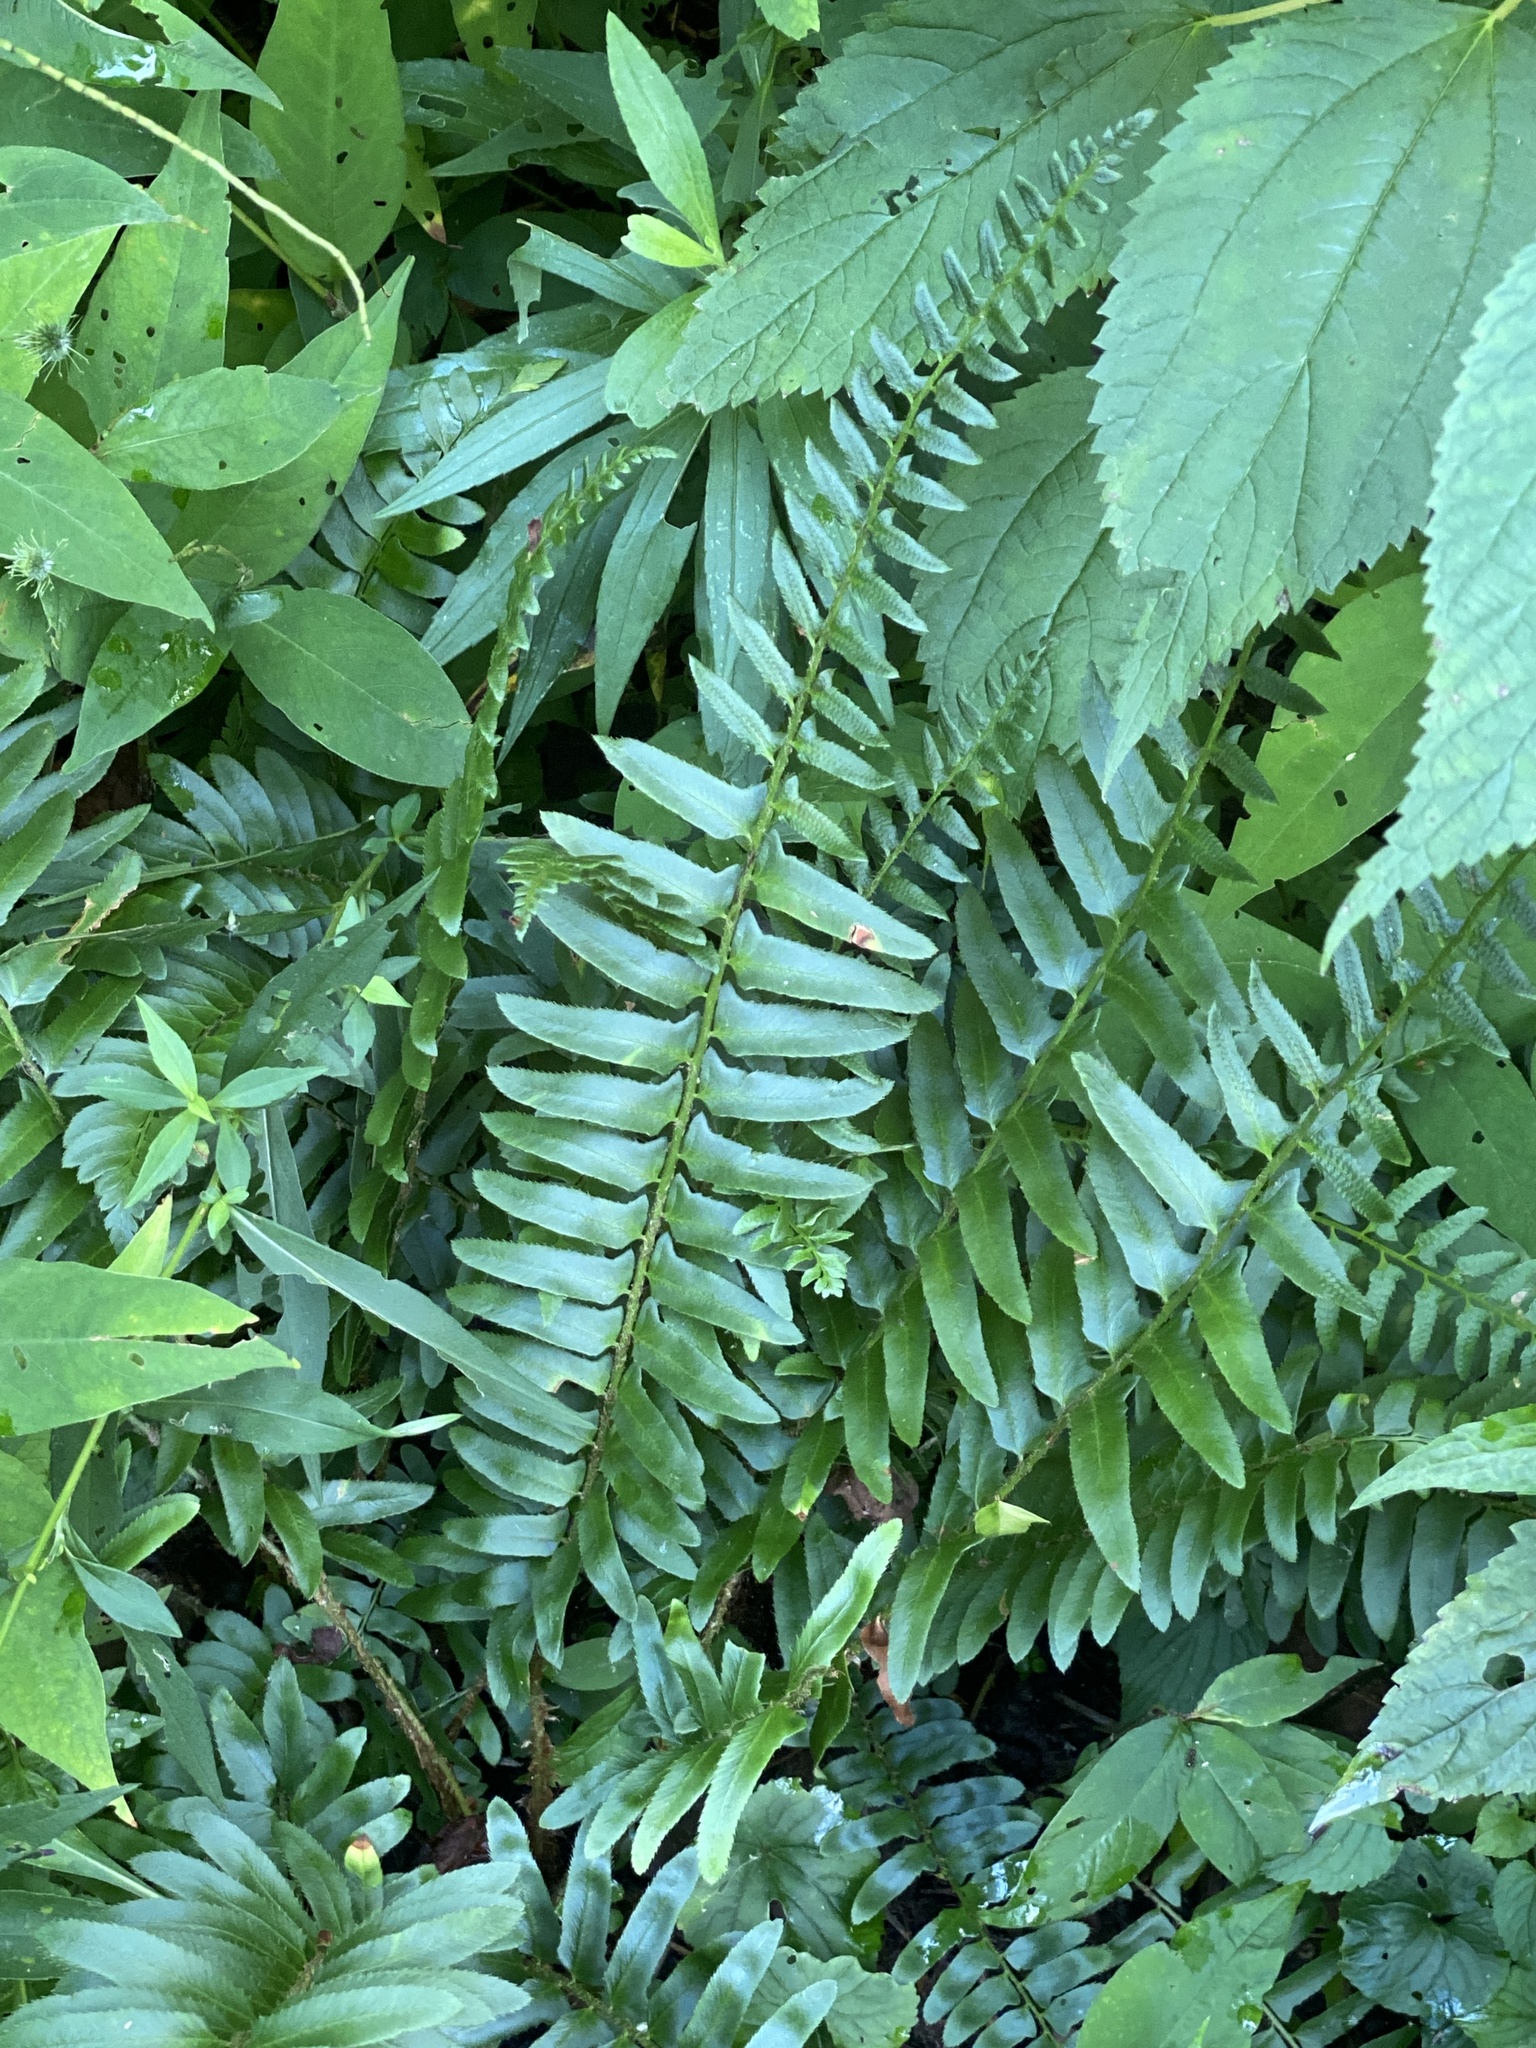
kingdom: Plantae
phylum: Tracheophyta
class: Polypodiopsida
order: Polypodiales
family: Dryopteridaceae
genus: Polystichum
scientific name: Polystichum acrostichoides
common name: Christmas fern
